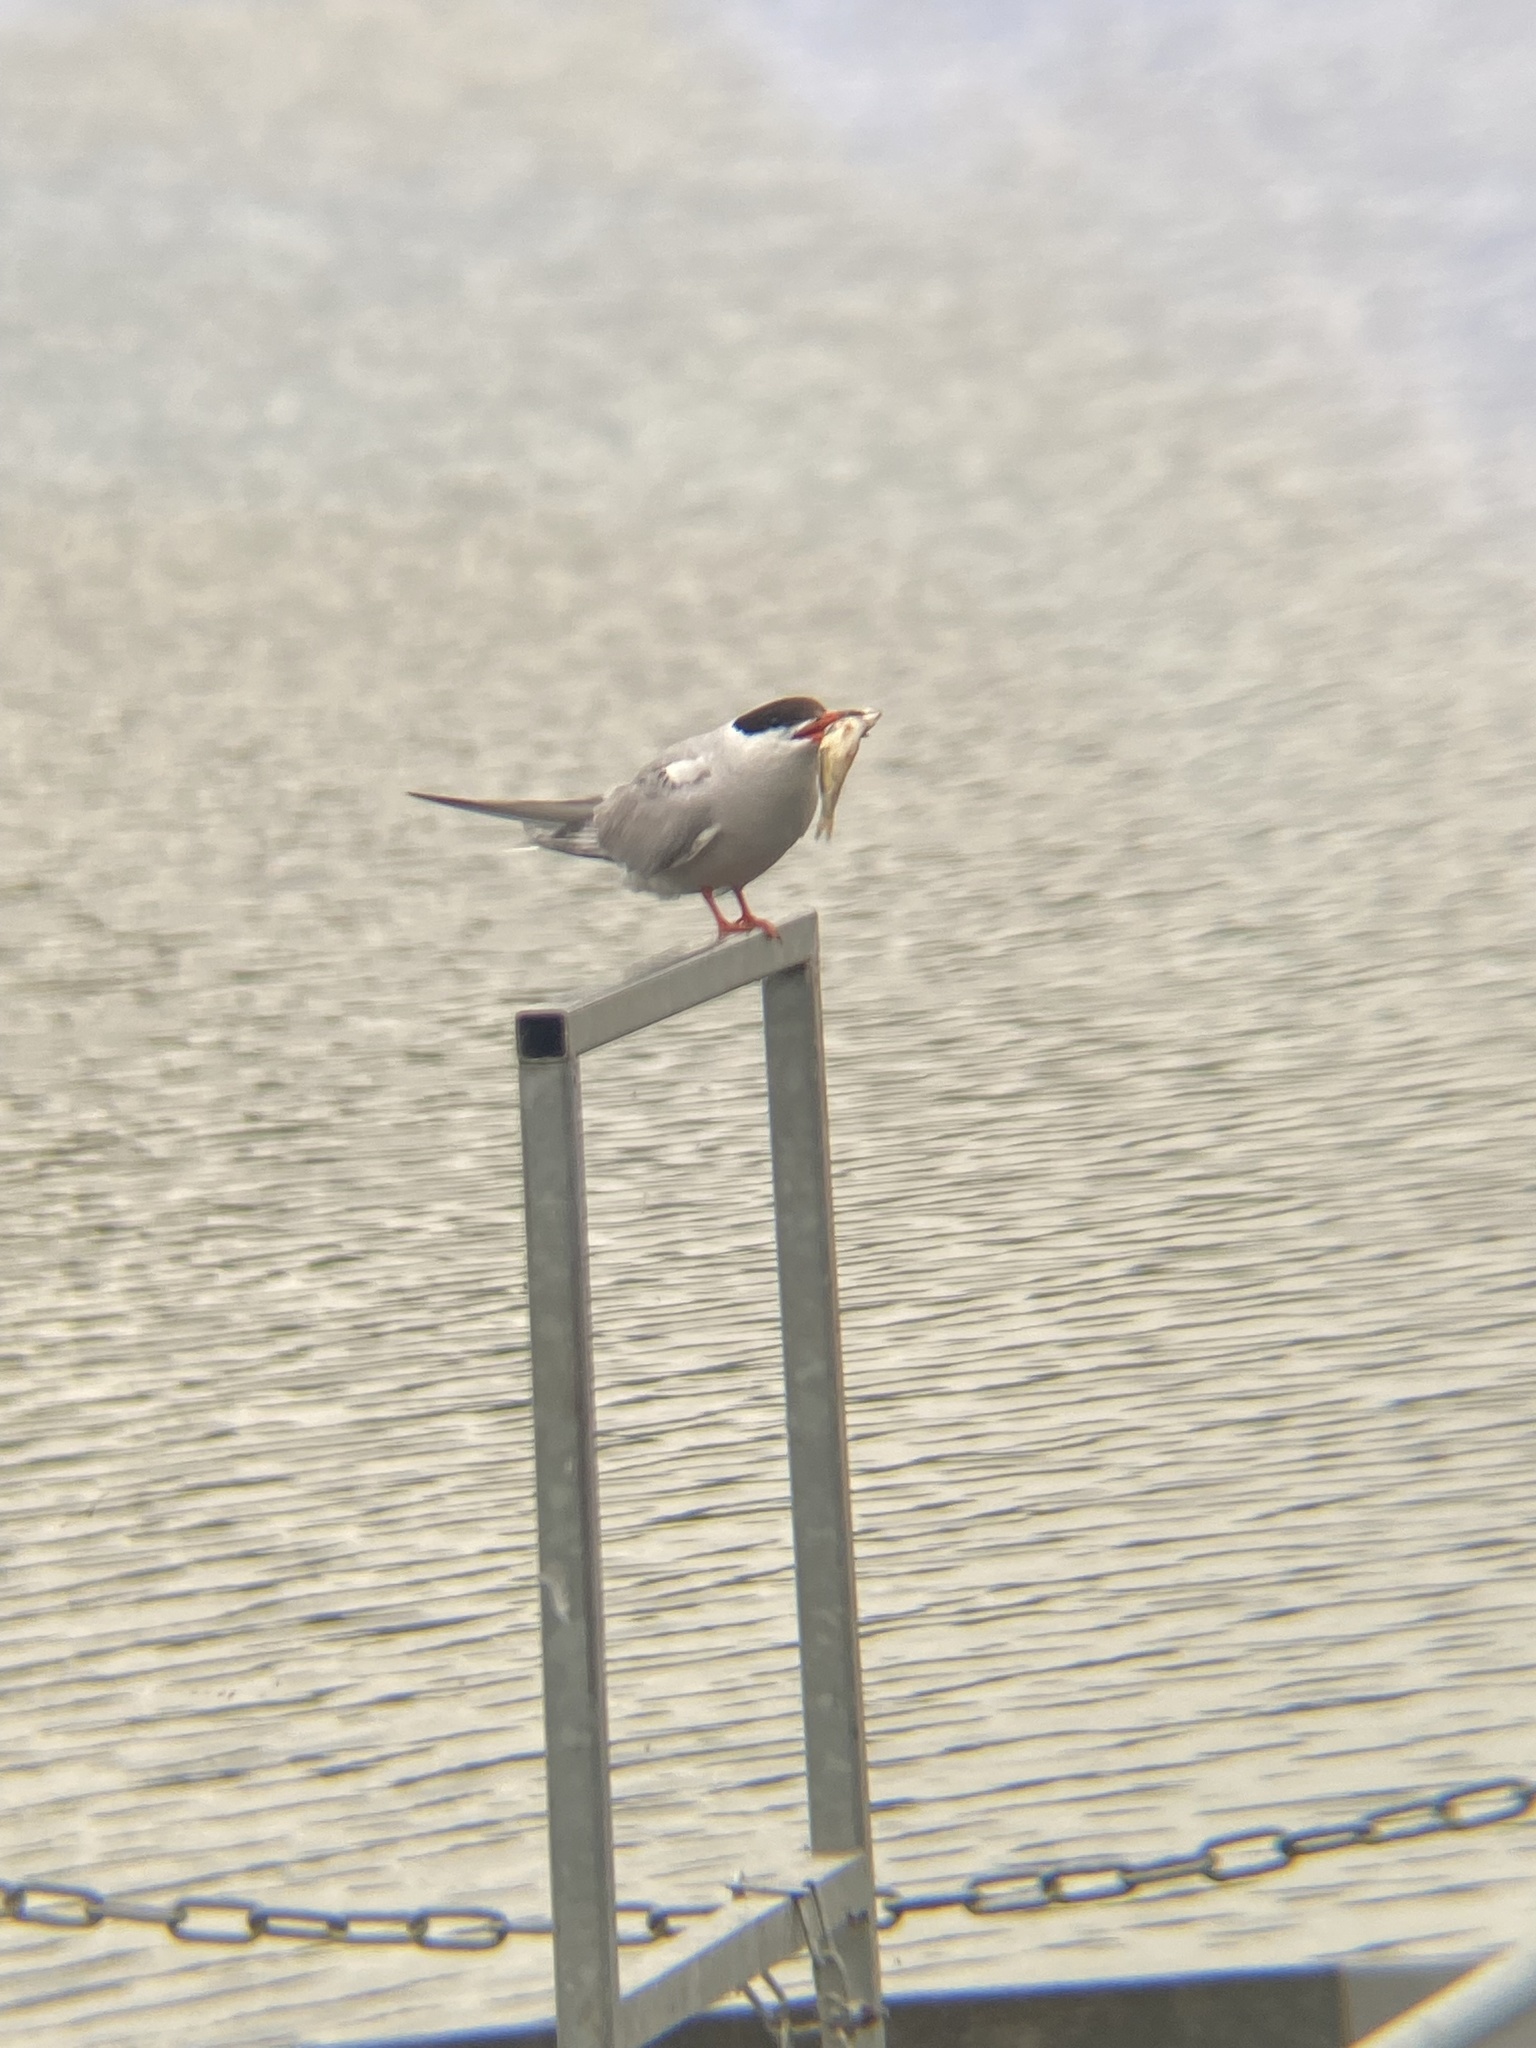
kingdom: Animalia
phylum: Chordata
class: Aves
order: Charadriiformes
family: Laridae
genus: Sterna
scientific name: Sterna hirundo
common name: Common tern
